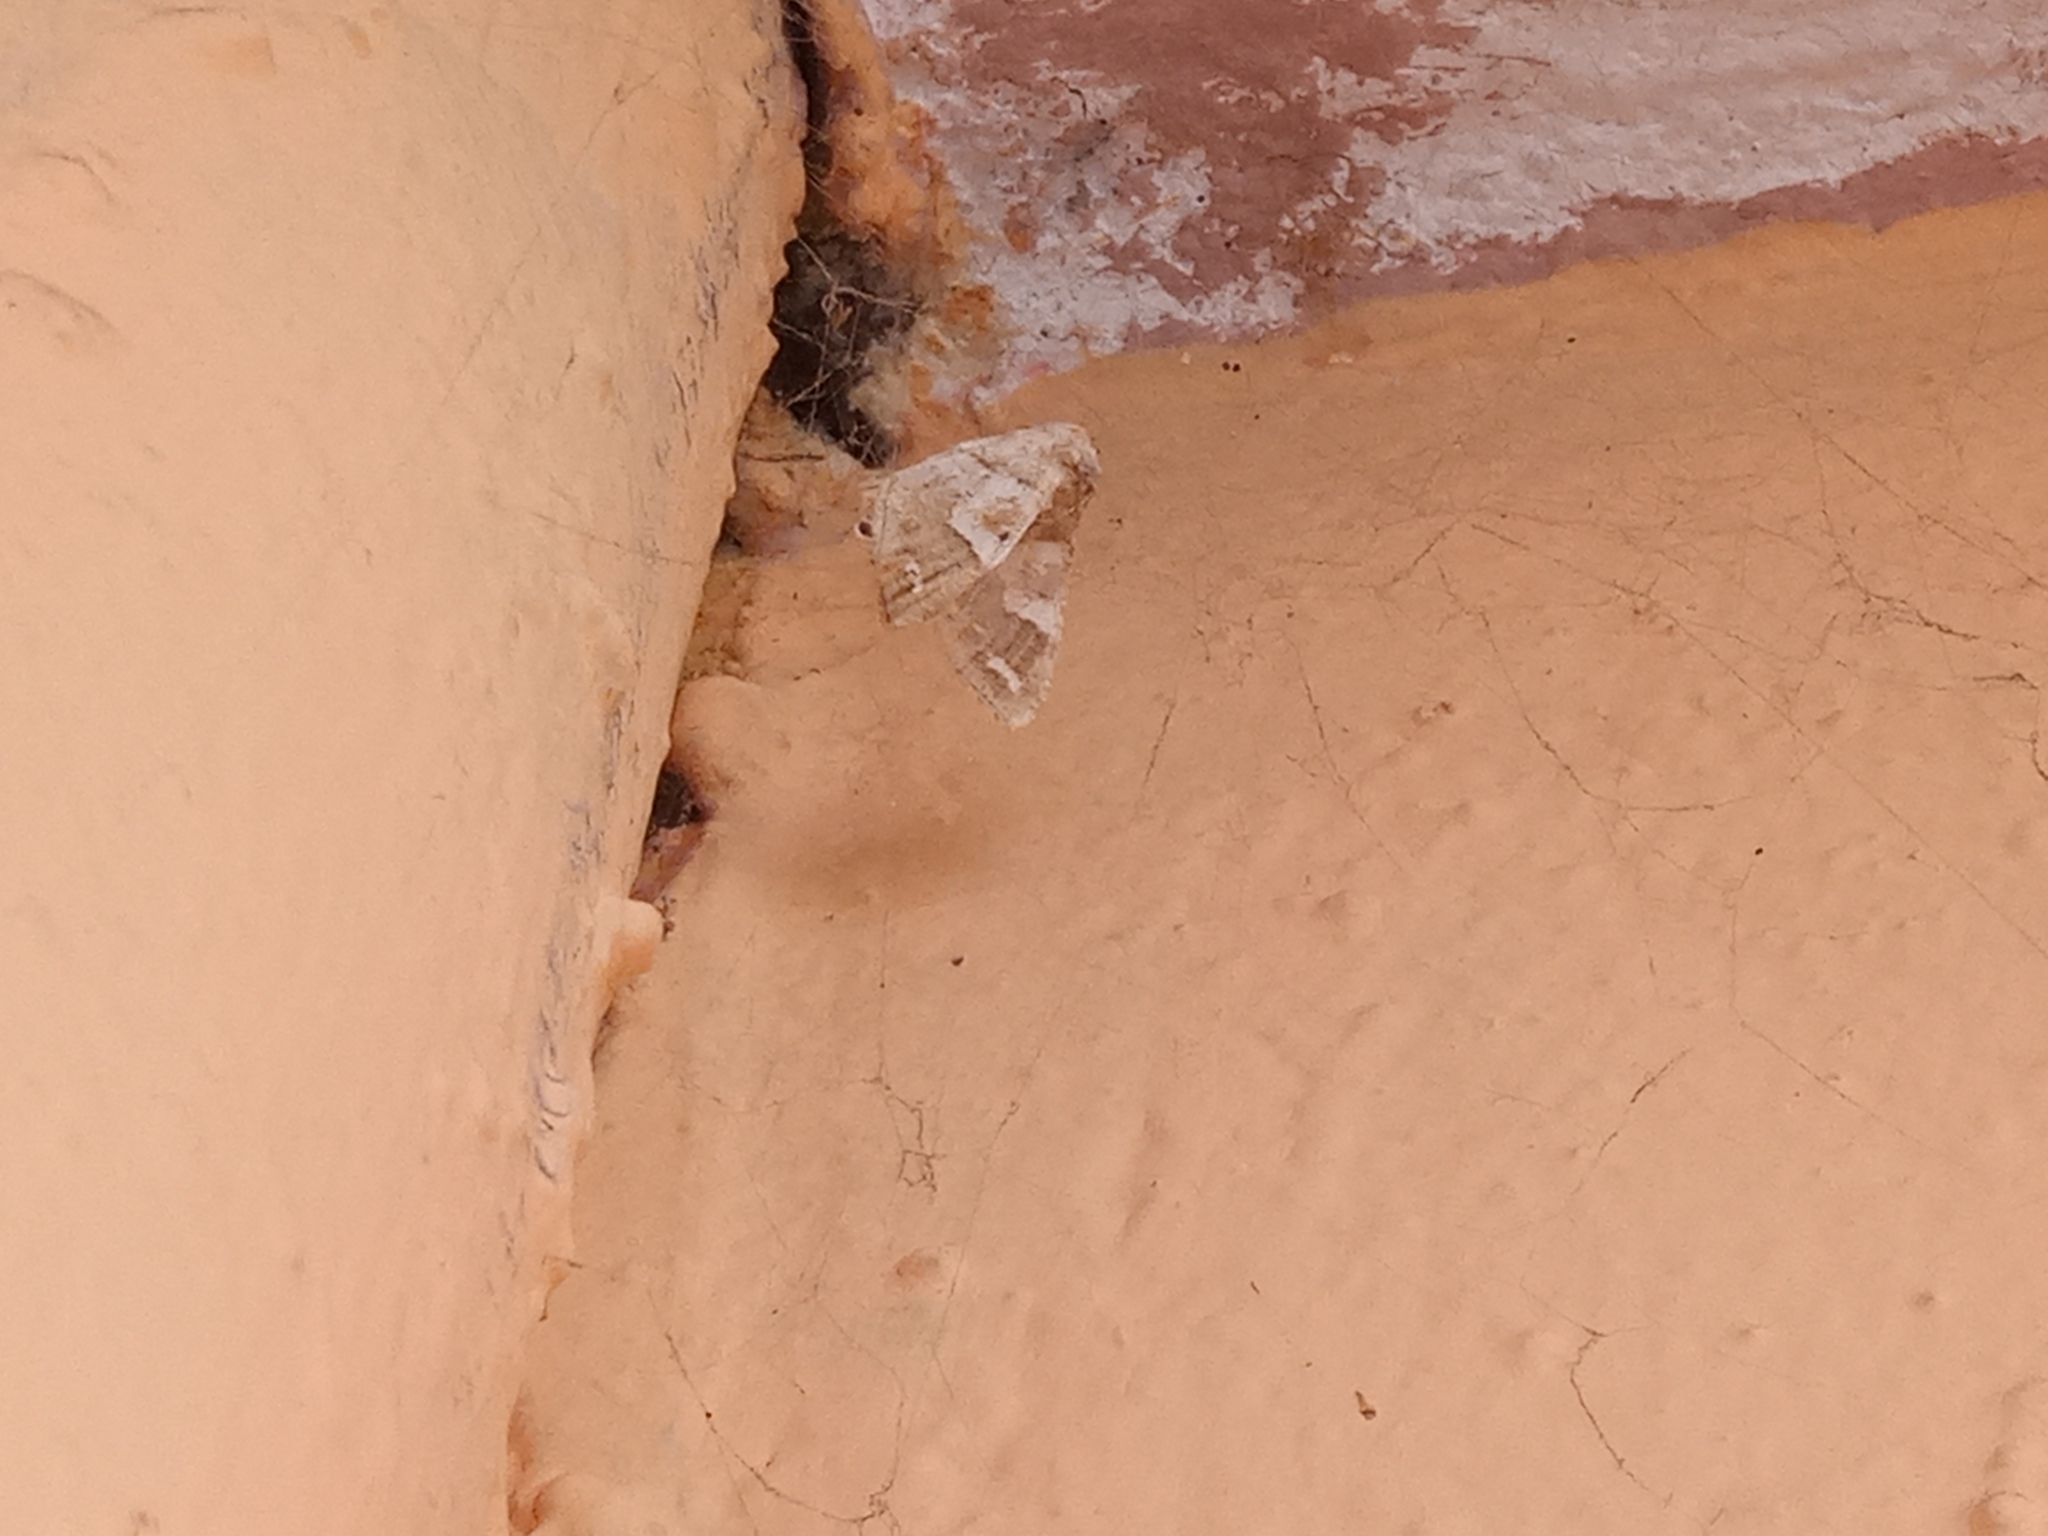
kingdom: Animalia
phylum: Arthropoda
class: Insecta
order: Lepidoptera
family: Geometridae
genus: Rindgeria
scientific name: Rindgeria ornata
